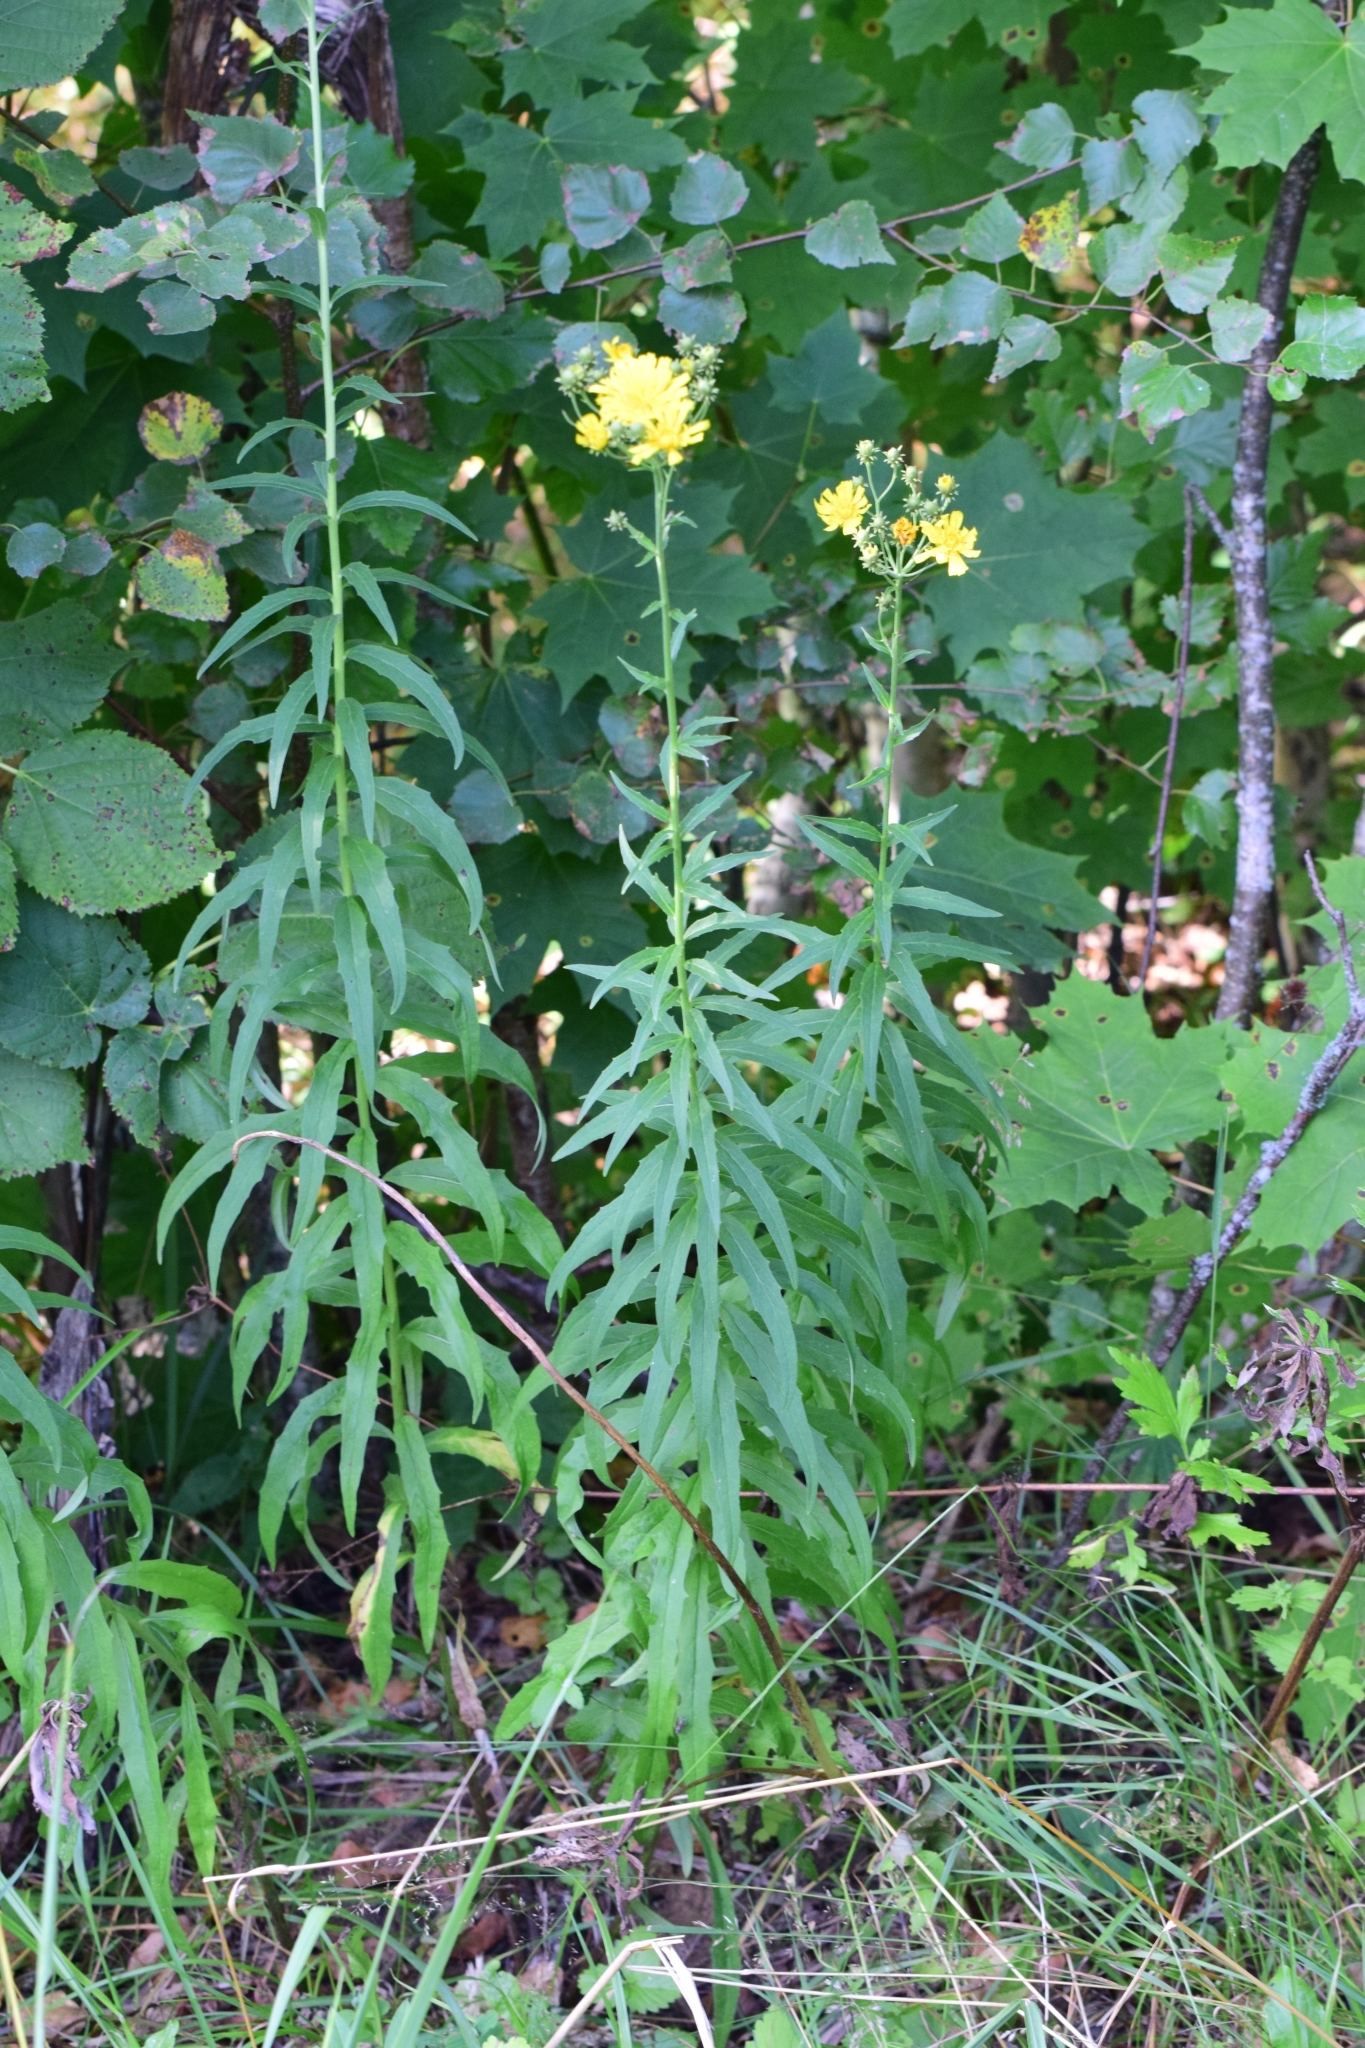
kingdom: Plantae
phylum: Tracheophyta
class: Magnoliopsida
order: Asterales
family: Asteraceae
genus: Hieracium
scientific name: Hieracium umbellatum
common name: Northern hawkweed
